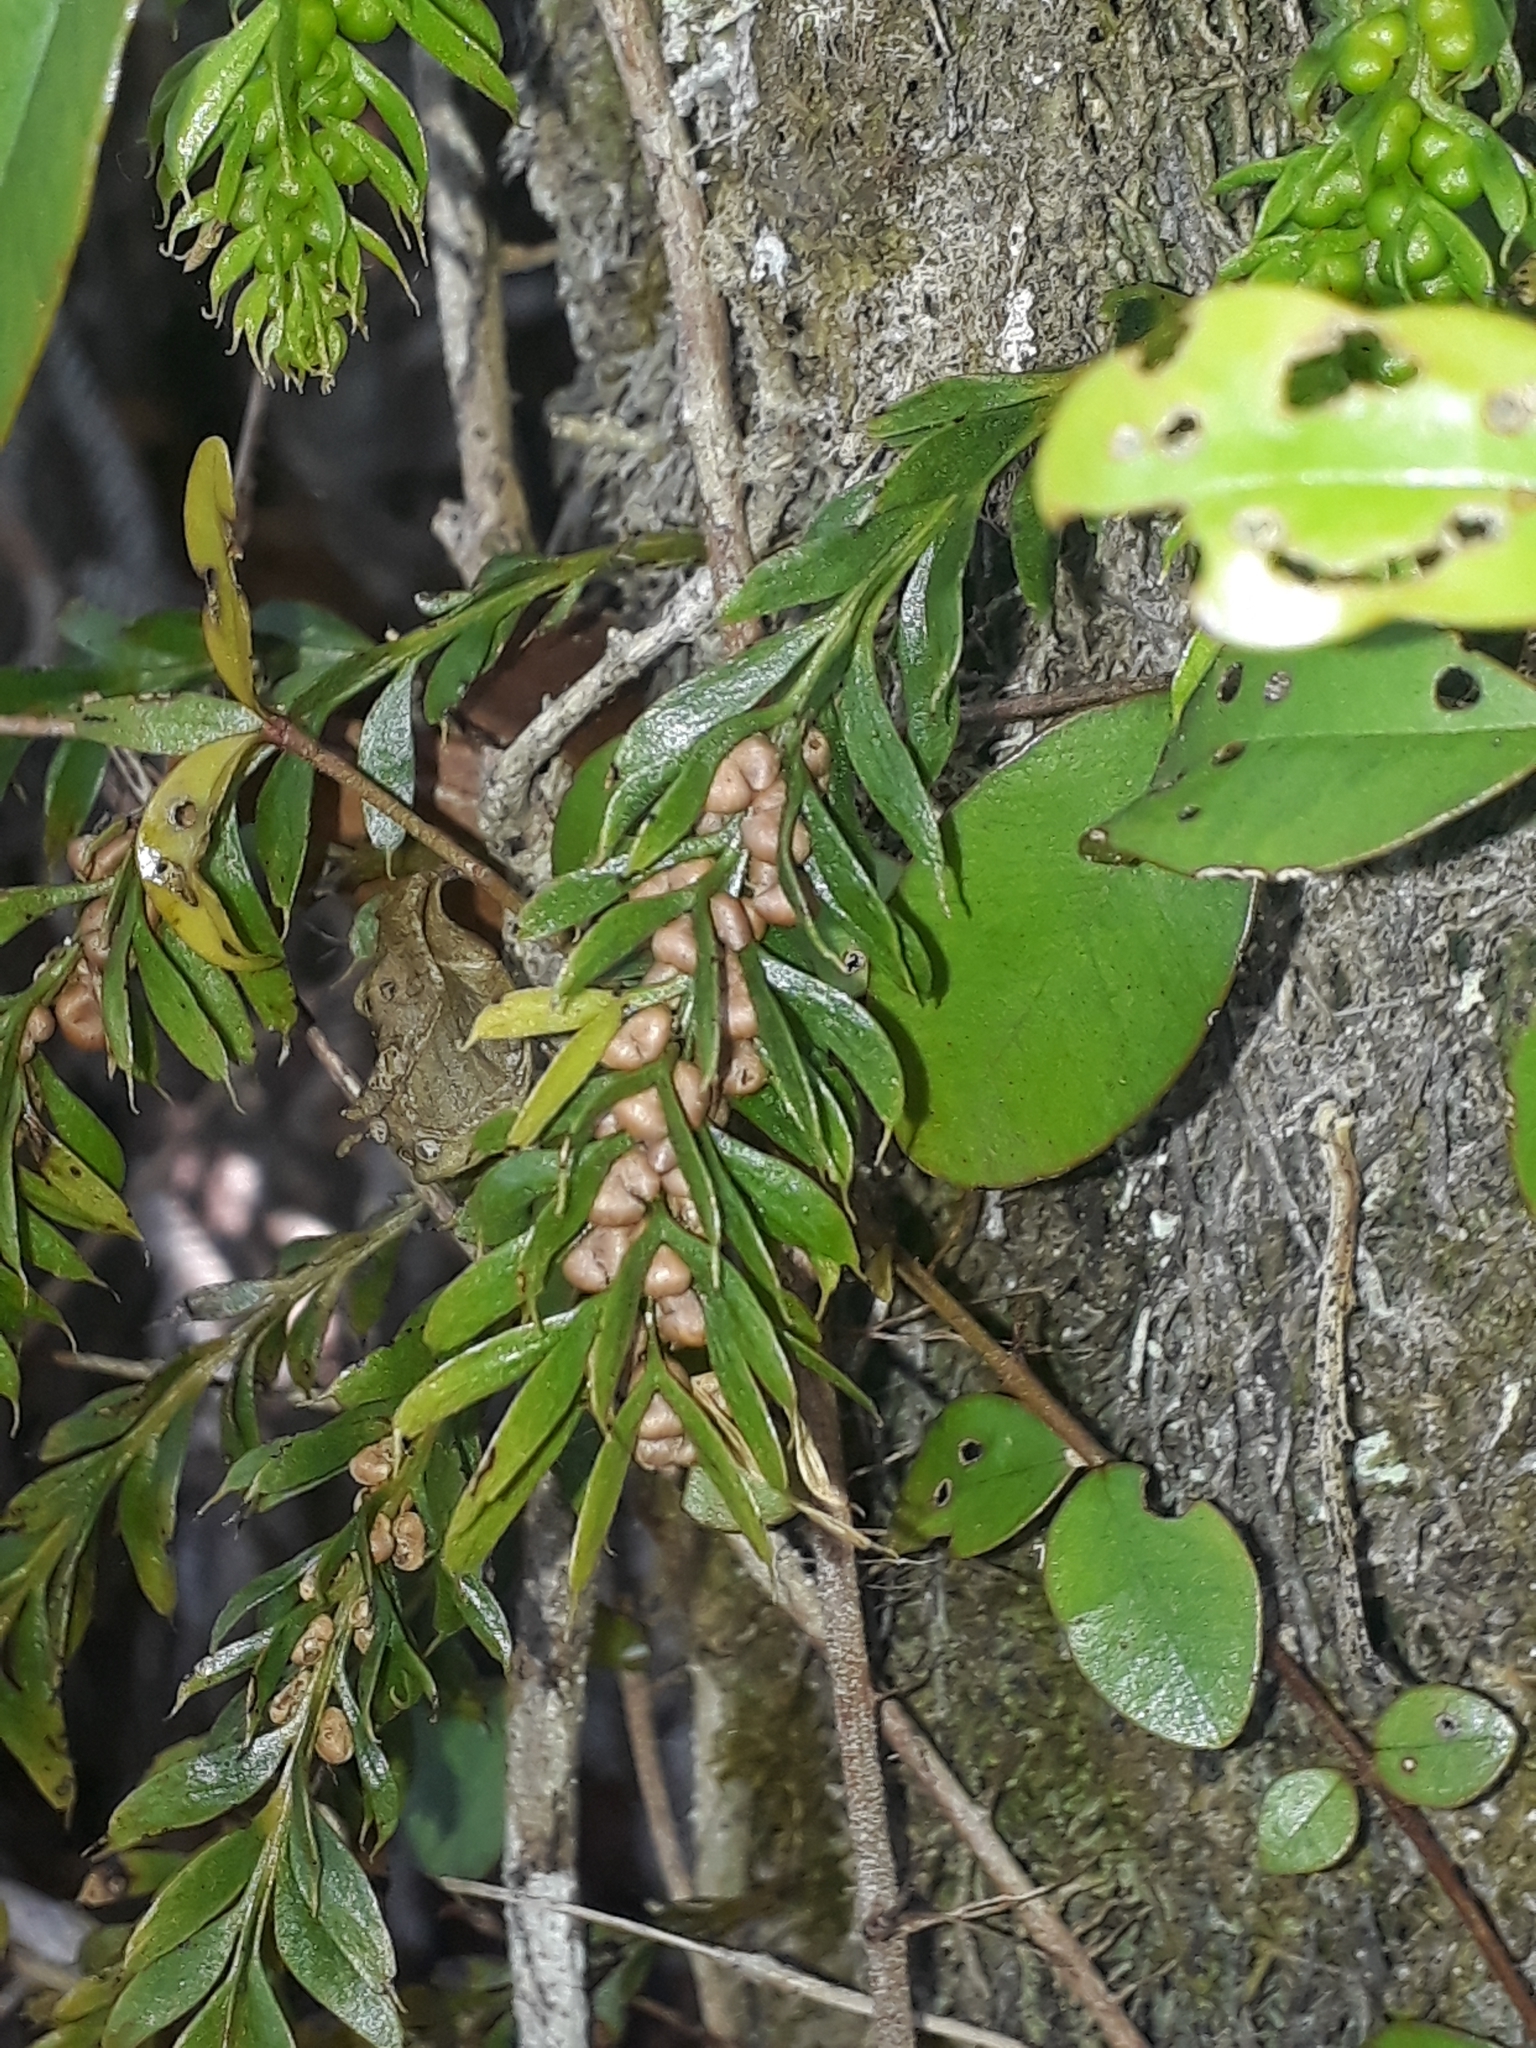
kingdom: Plantae
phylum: Tracheophyta
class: Polypodiopsida
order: Psilotales
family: Psilotaceae
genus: Tmesipteris
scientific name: Tmesipteris sigmatifolia
